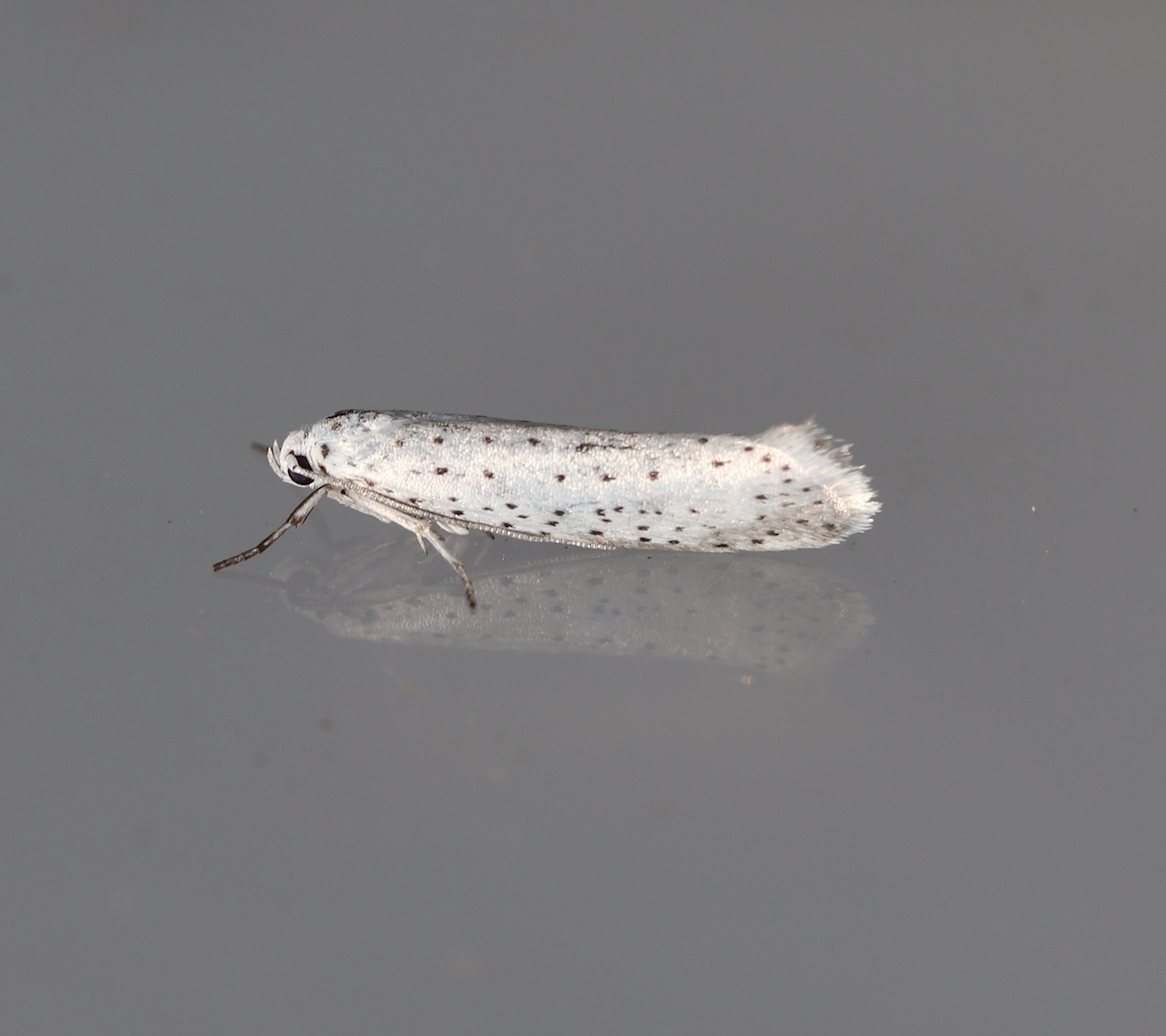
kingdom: Animalia
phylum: Arthropoda
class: Insecta
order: Lepidoptera
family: Yponomeutidae
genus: Yponomeuta
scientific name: Yponomeuta evonymella
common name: Bird-cherry ermine
